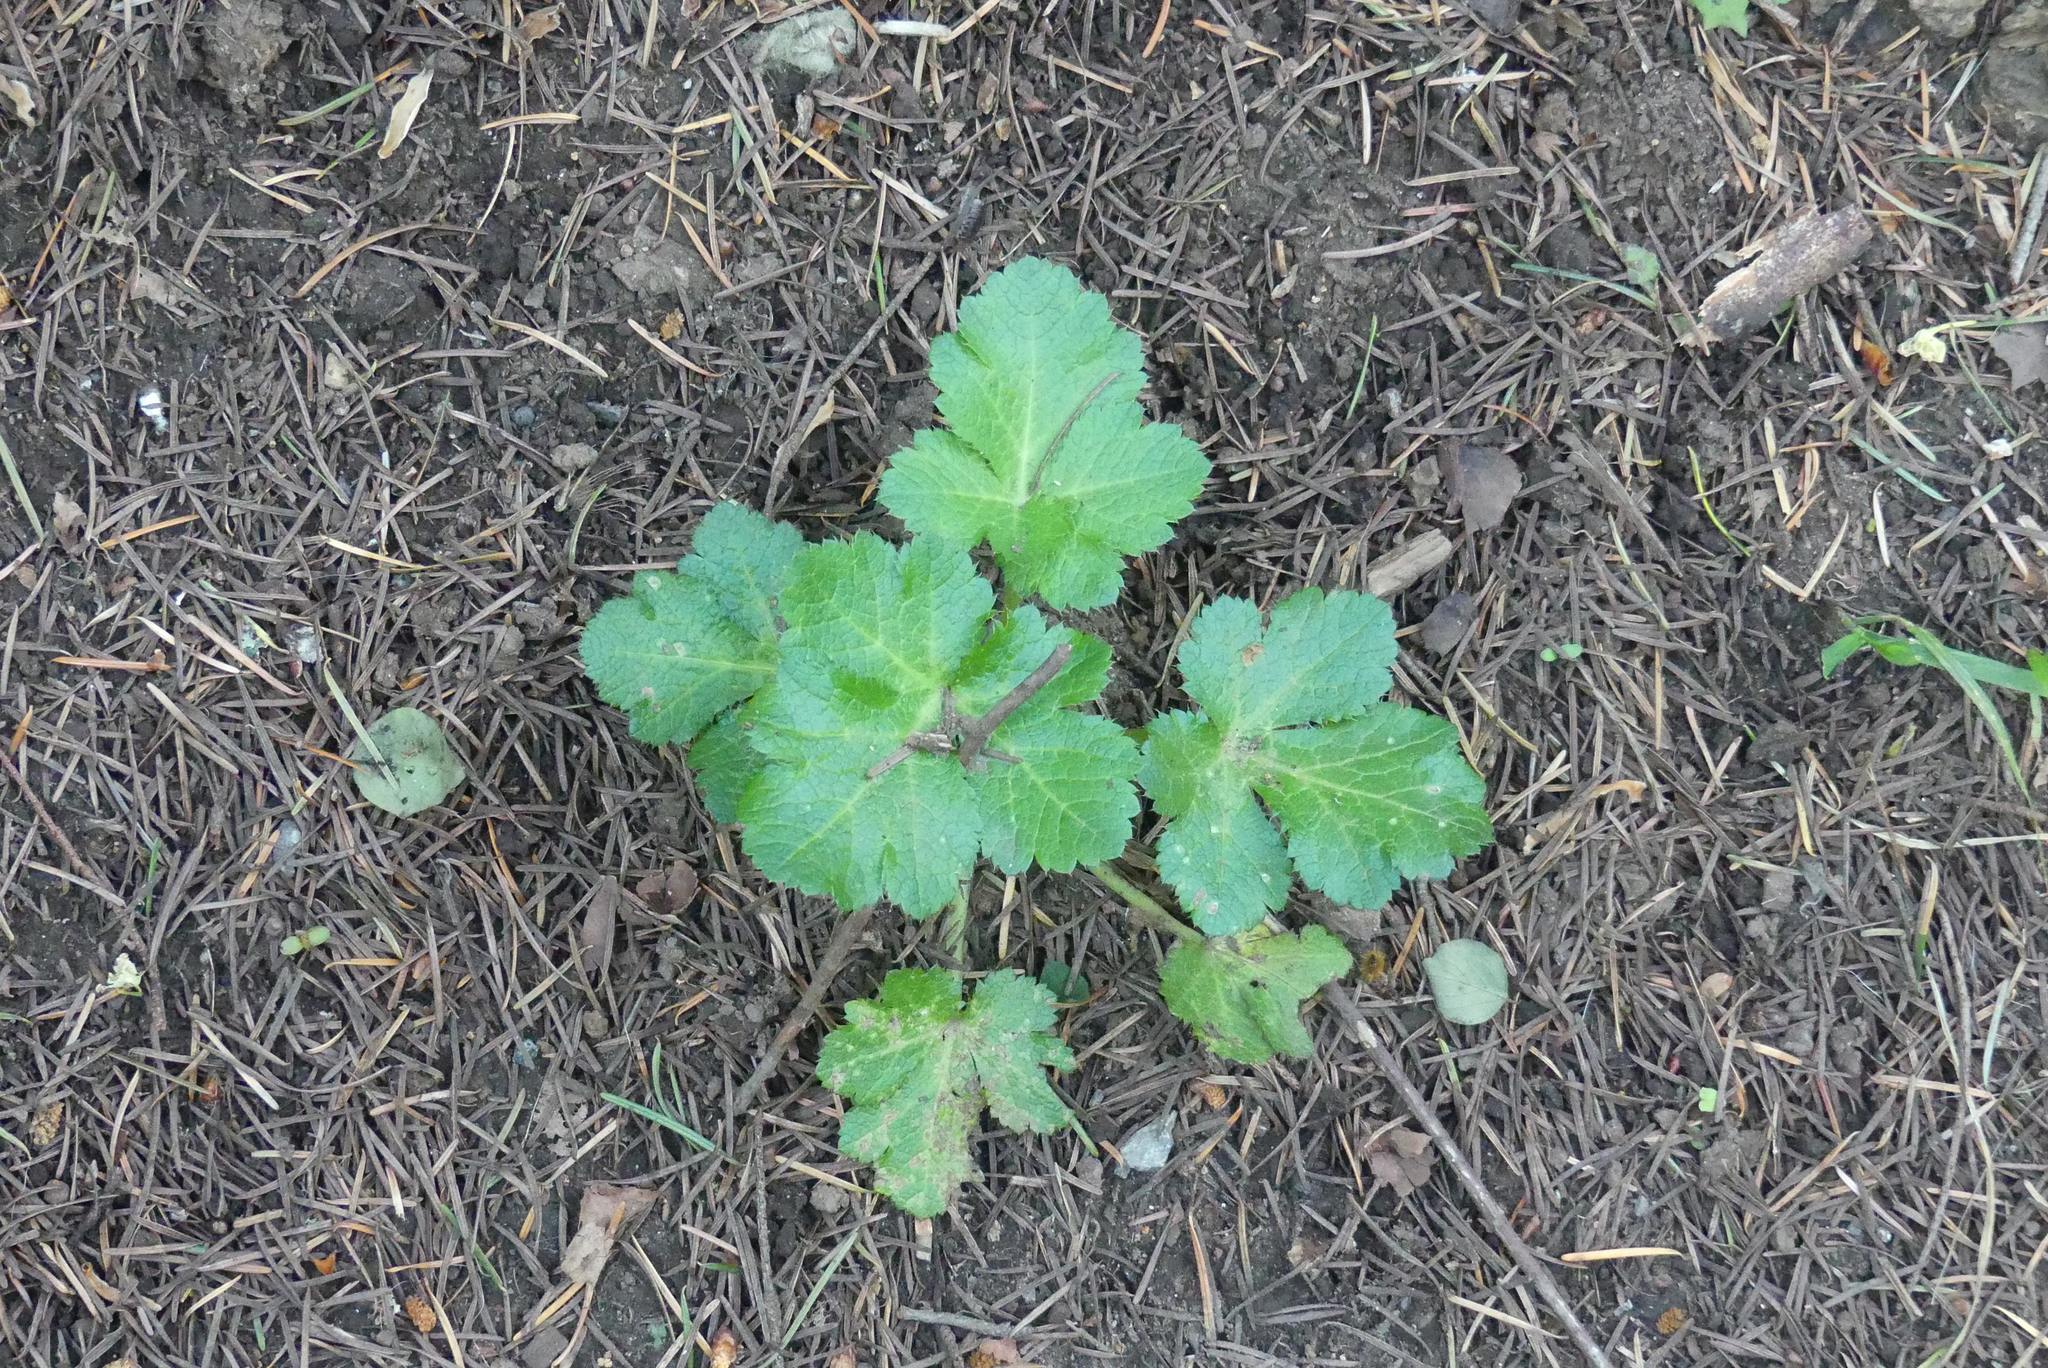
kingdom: Plantae
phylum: Tracheophyta
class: Magnoliopsida
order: Apiales
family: Apiaceae
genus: Sanicula
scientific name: Sanicula crassicaulis
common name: Western snakeroot
